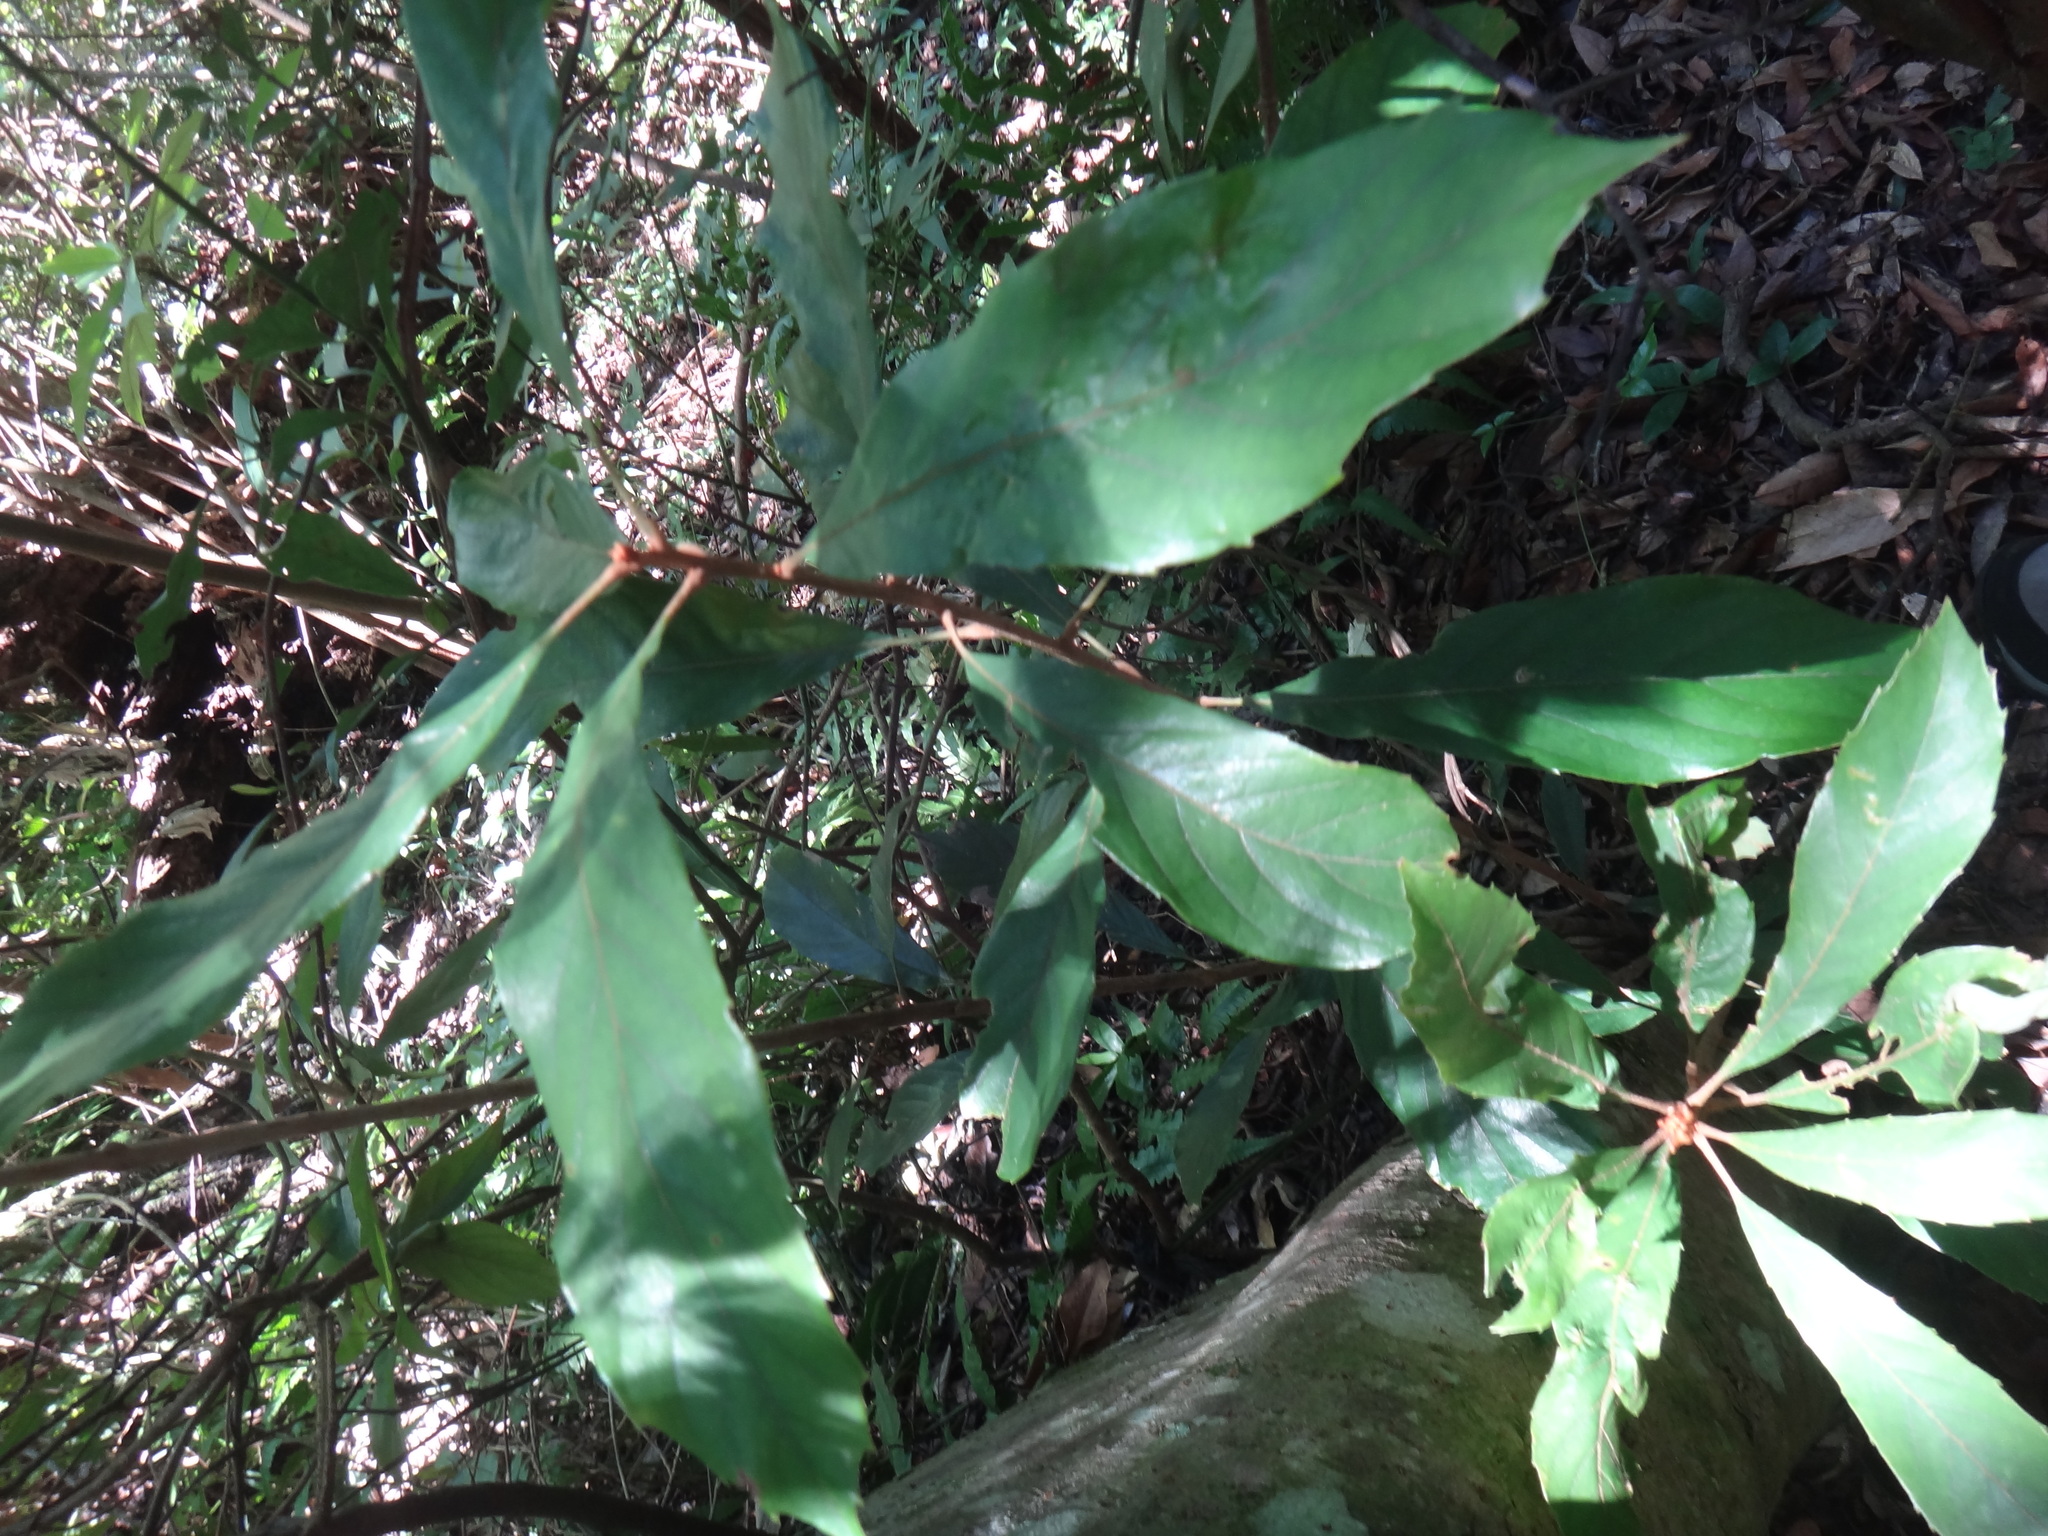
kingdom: Plantae
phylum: Tracheophyta
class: Magnoliopsida
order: Proteales
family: Sabiaceae
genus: Meliosma
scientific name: Meliosma rigida
